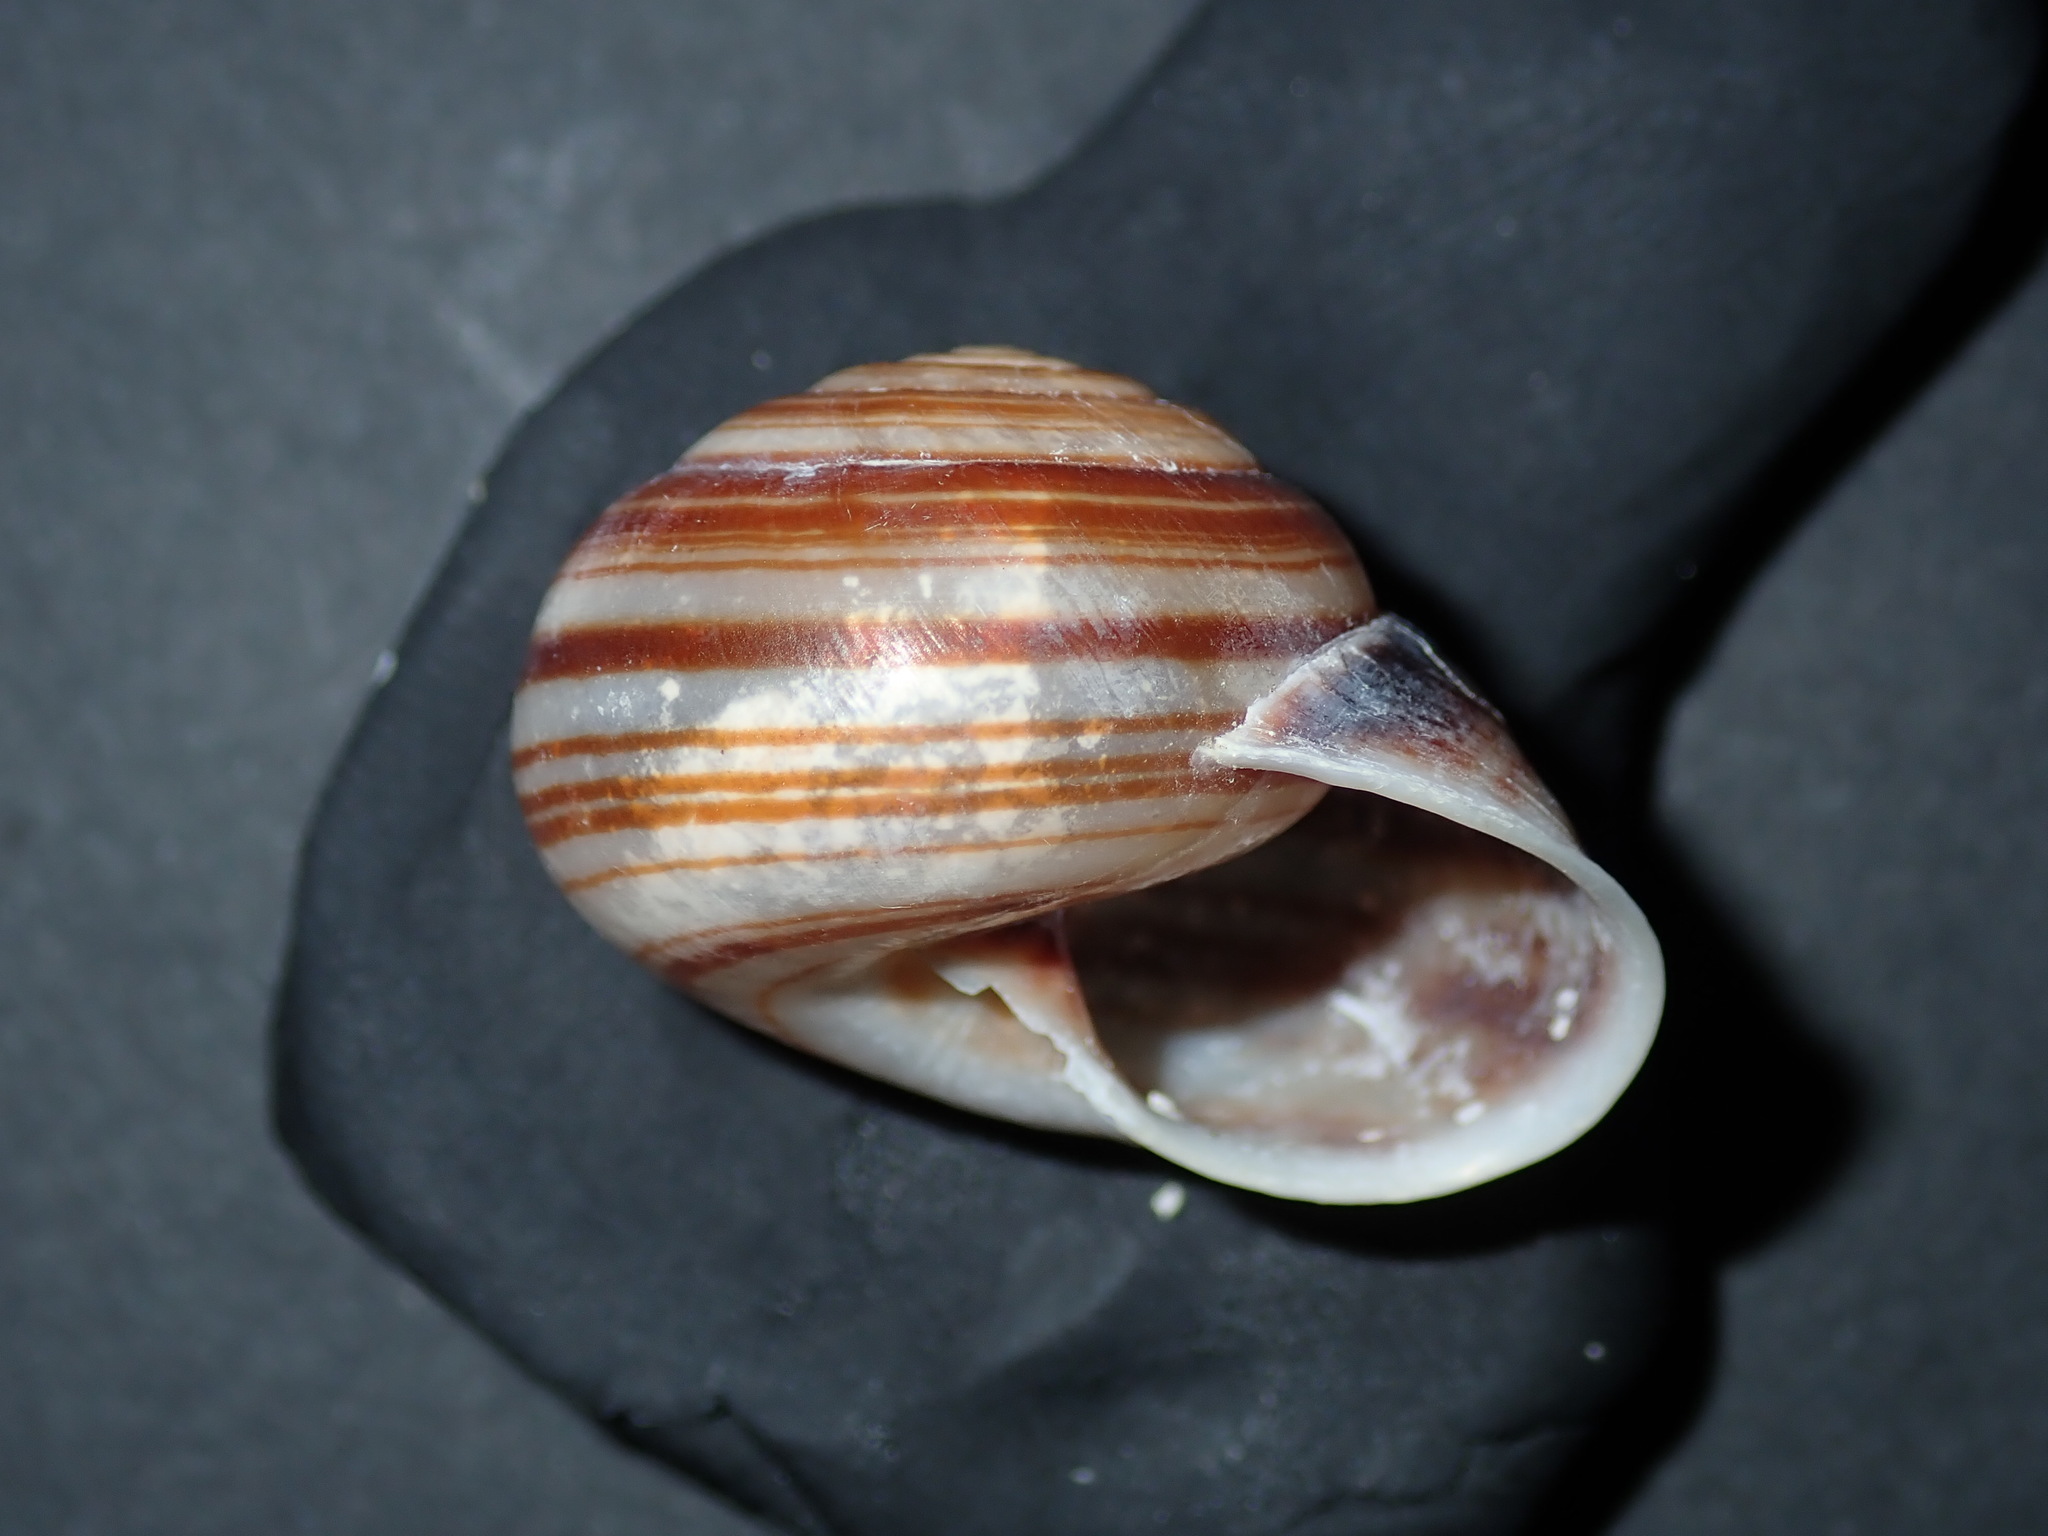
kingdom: Animalia
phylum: Mollusca
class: Gastropoda
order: Stylommatophora
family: Camaenidae
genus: Euryladra
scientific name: Euryladra mattea
